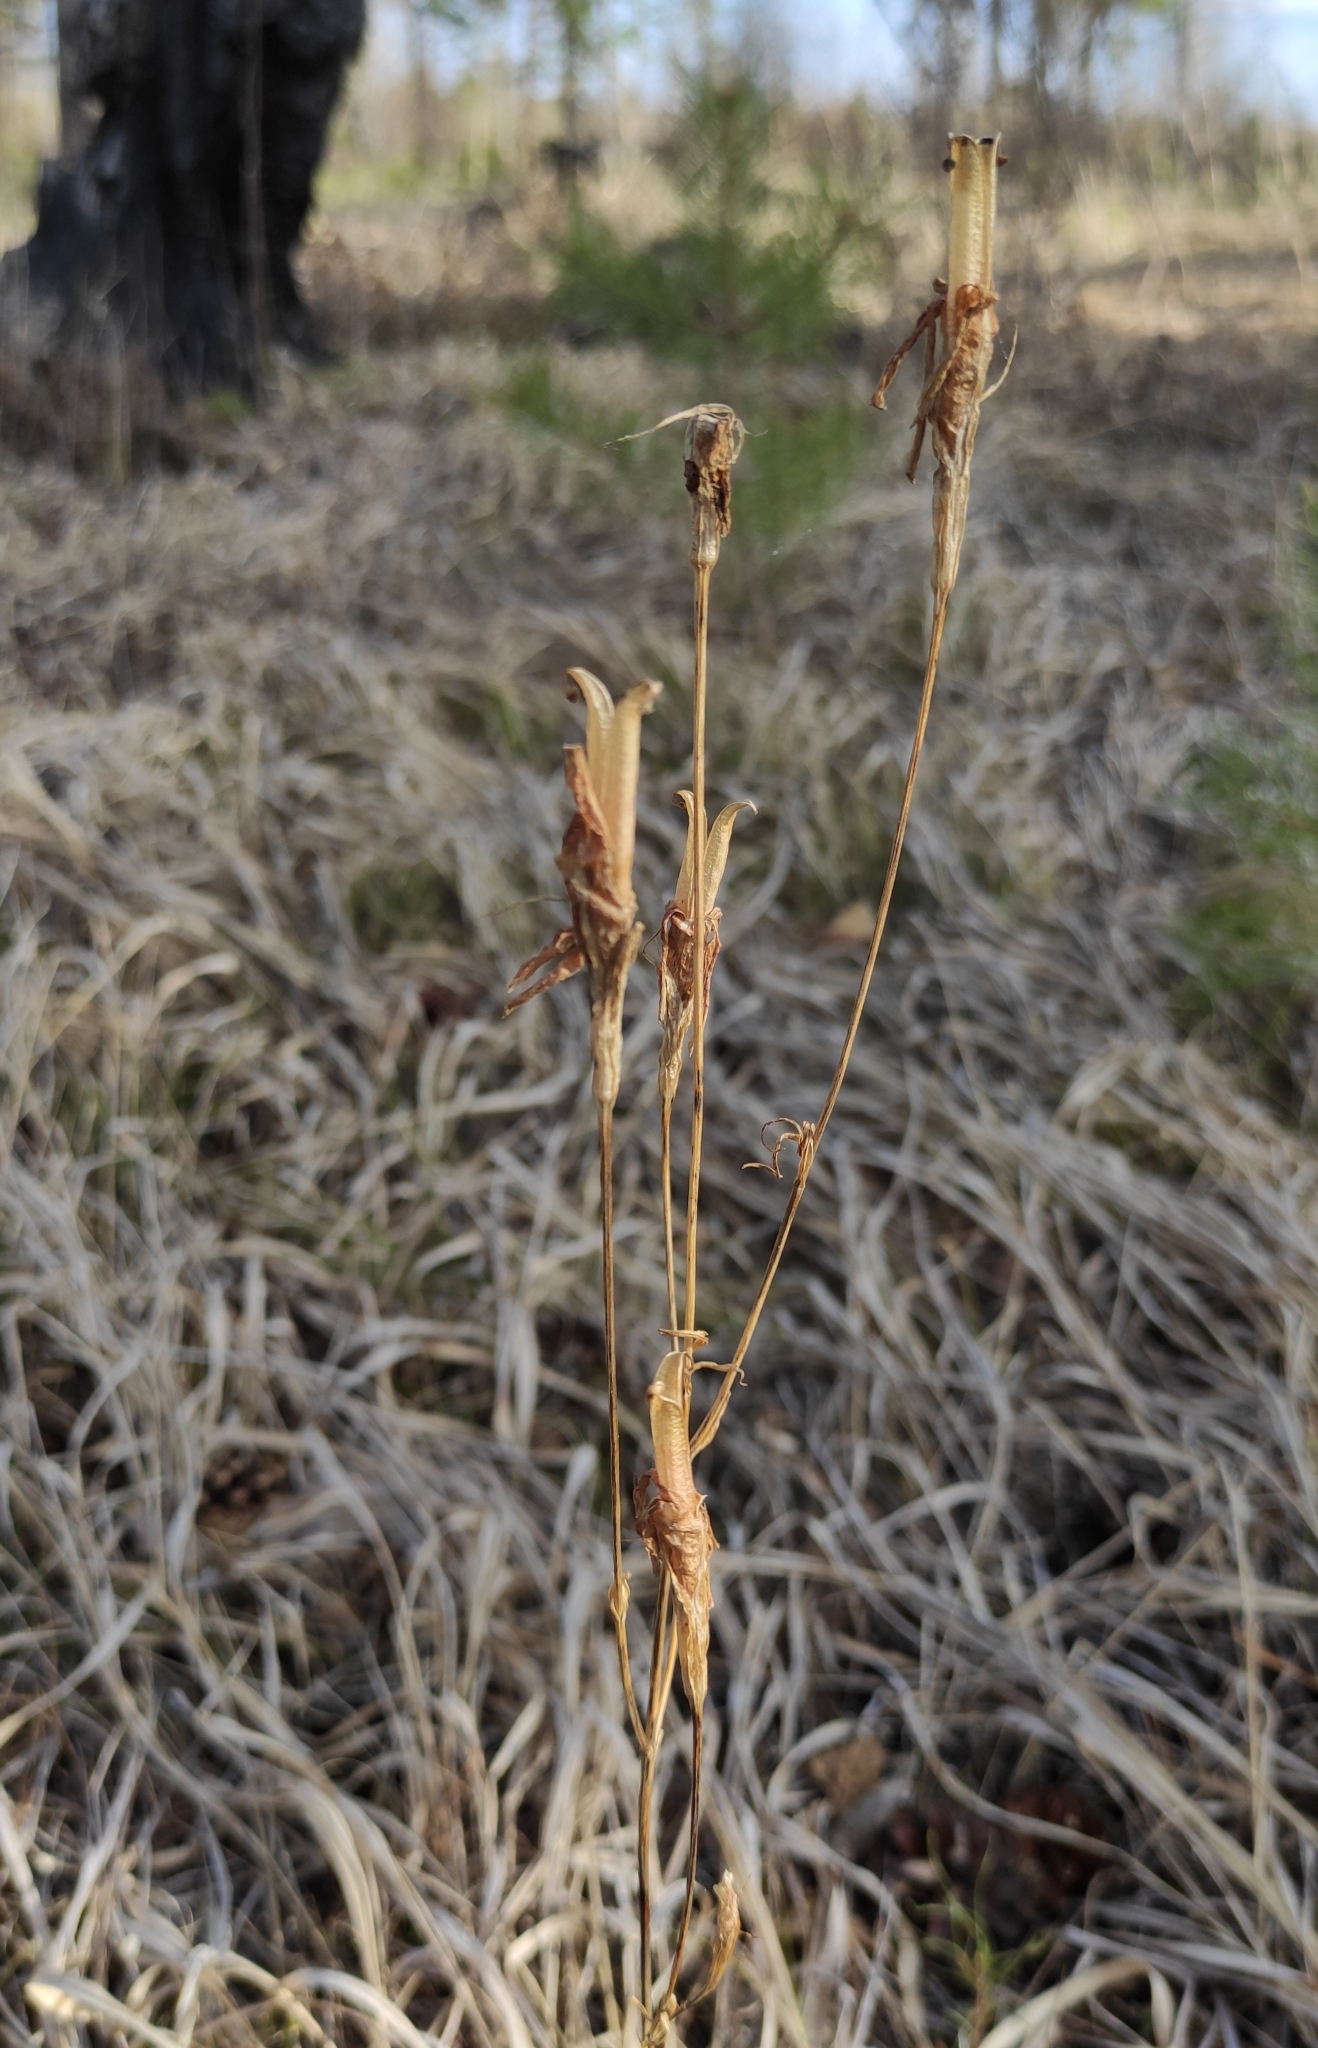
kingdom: Plantae
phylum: Tracheophyta
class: Magnoliopsida
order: Gentianales
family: Gentianaceae
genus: Gentianopsis
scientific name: Gentianopsis barbata
